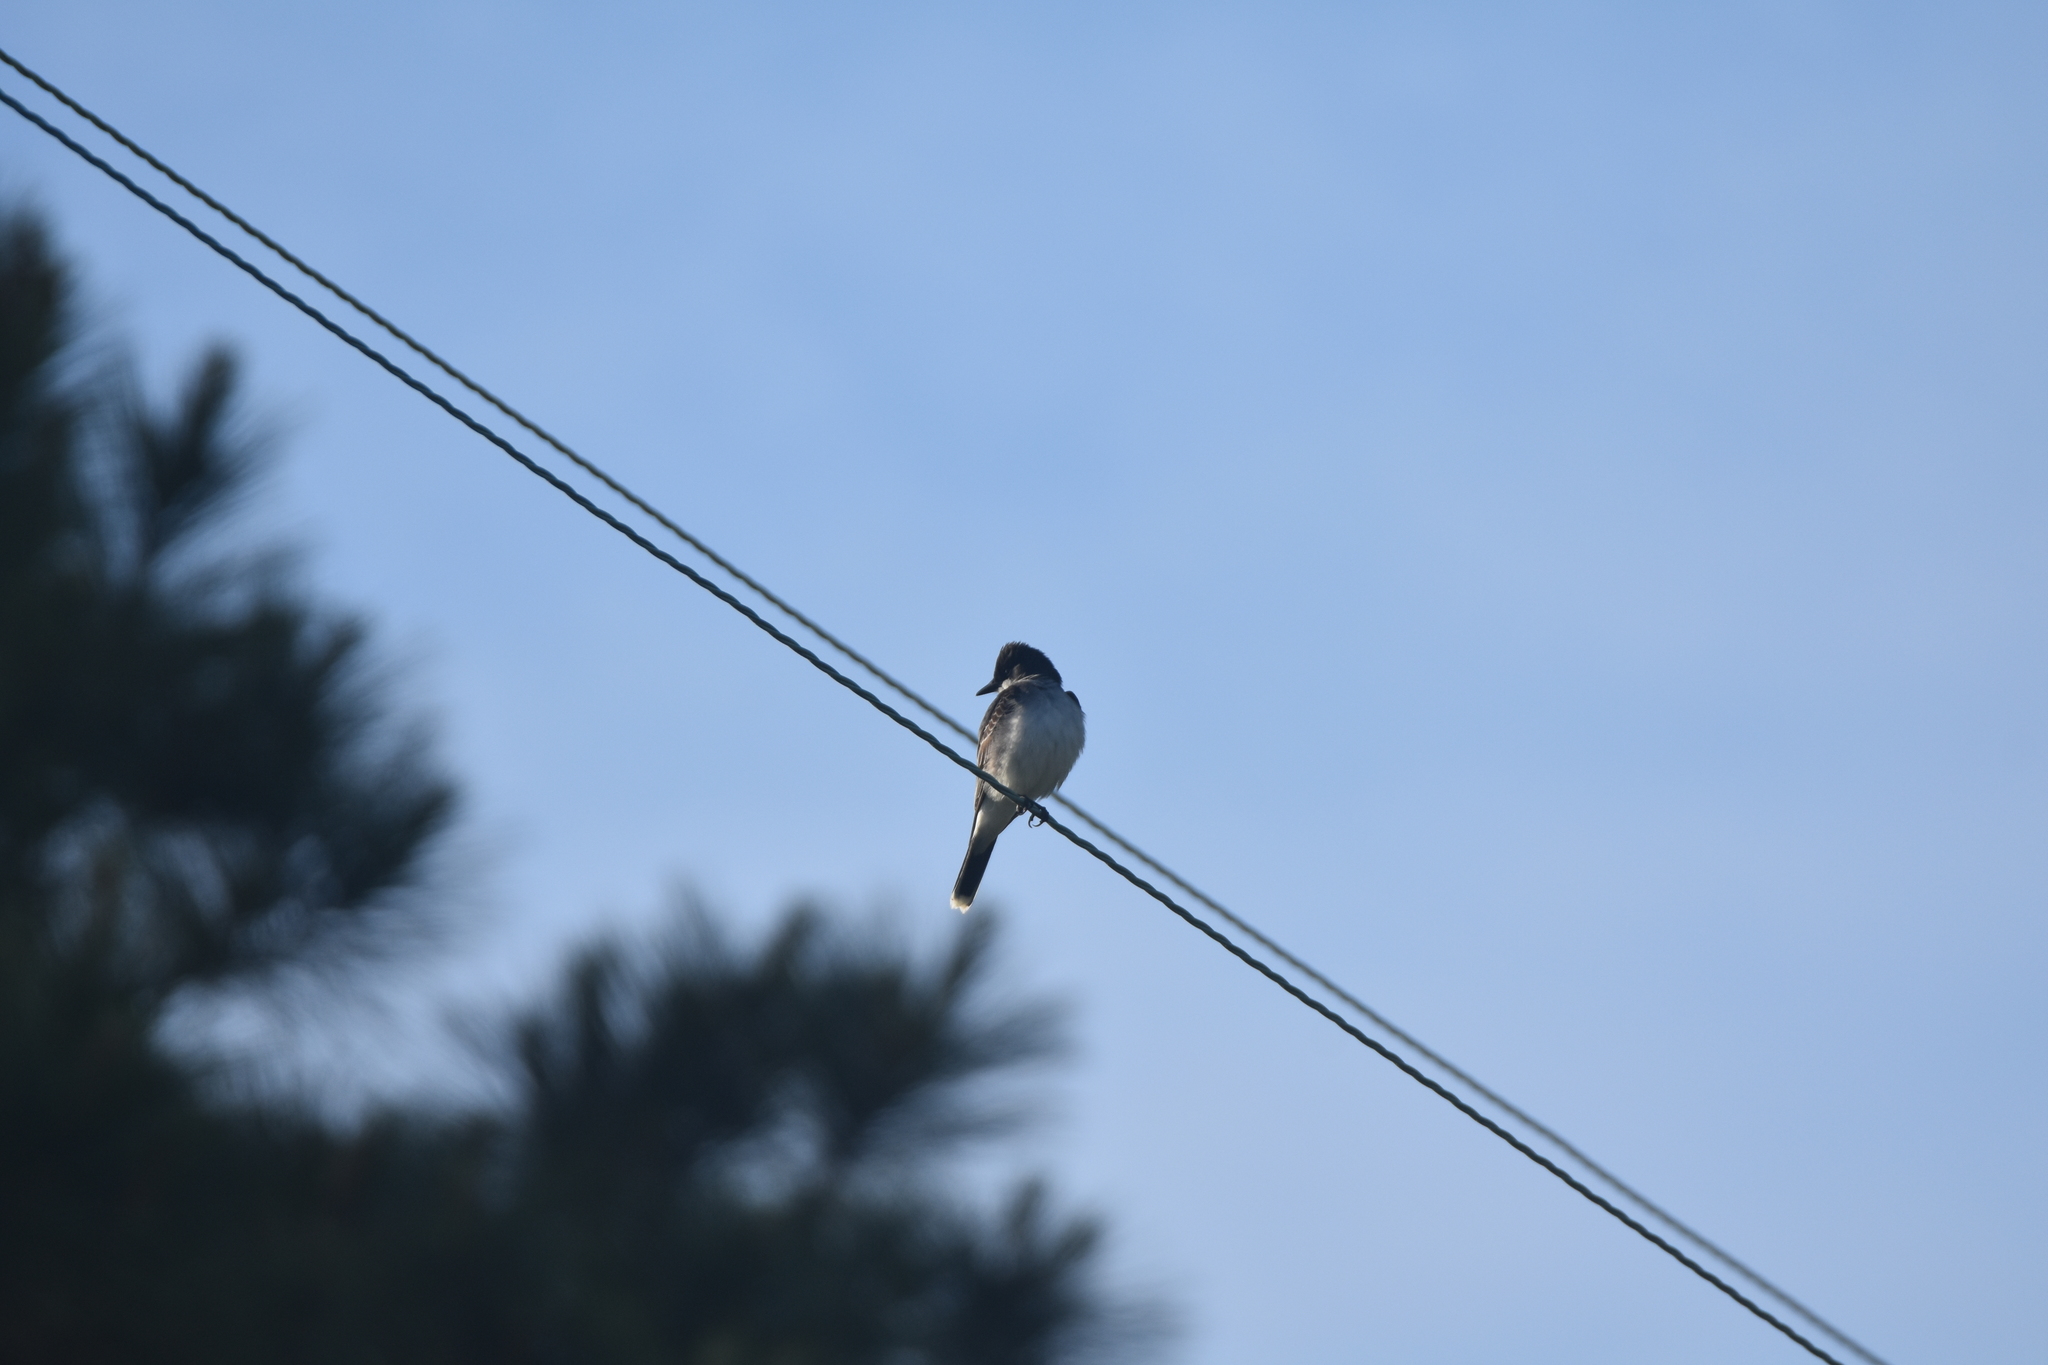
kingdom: Animalia
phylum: Chordata
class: Aves
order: Passeriformes
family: Tyrannidae
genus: Tyrannus
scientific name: Tyrannus tyrannus
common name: Eastern kingbird
